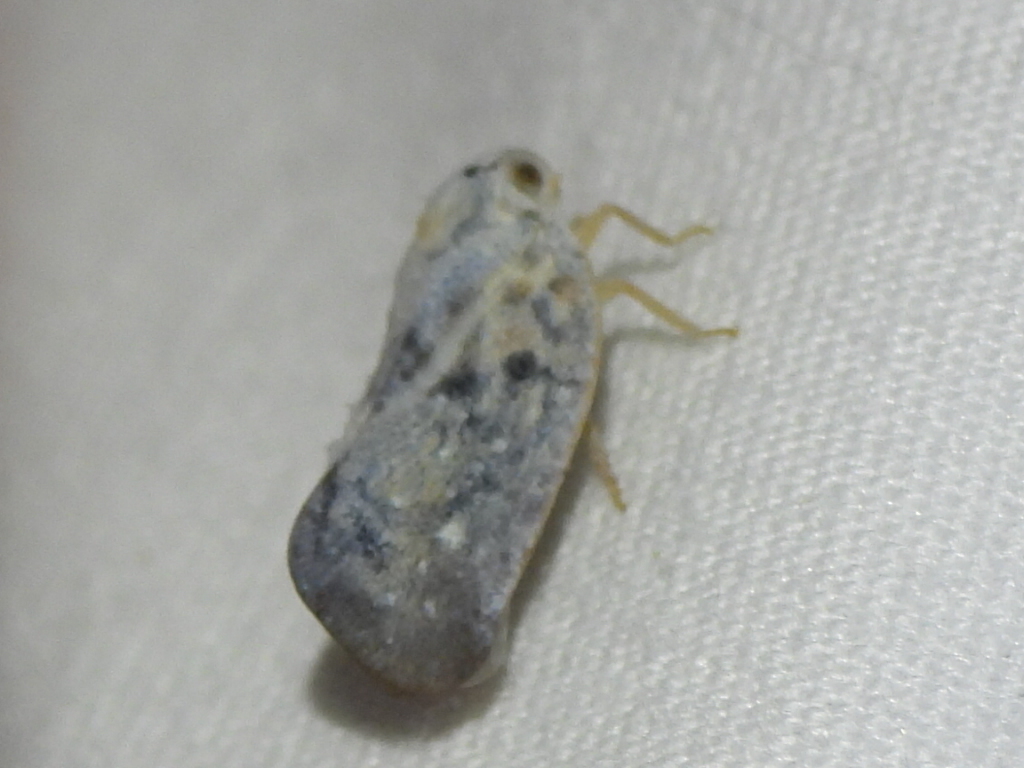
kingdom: Animalia
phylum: Arthropoda
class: Insecta
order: Hemiptera
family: Flatidae
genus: Metcalfa
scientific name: Metcalfa pruinosa
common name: Citrus flatid planthopper
